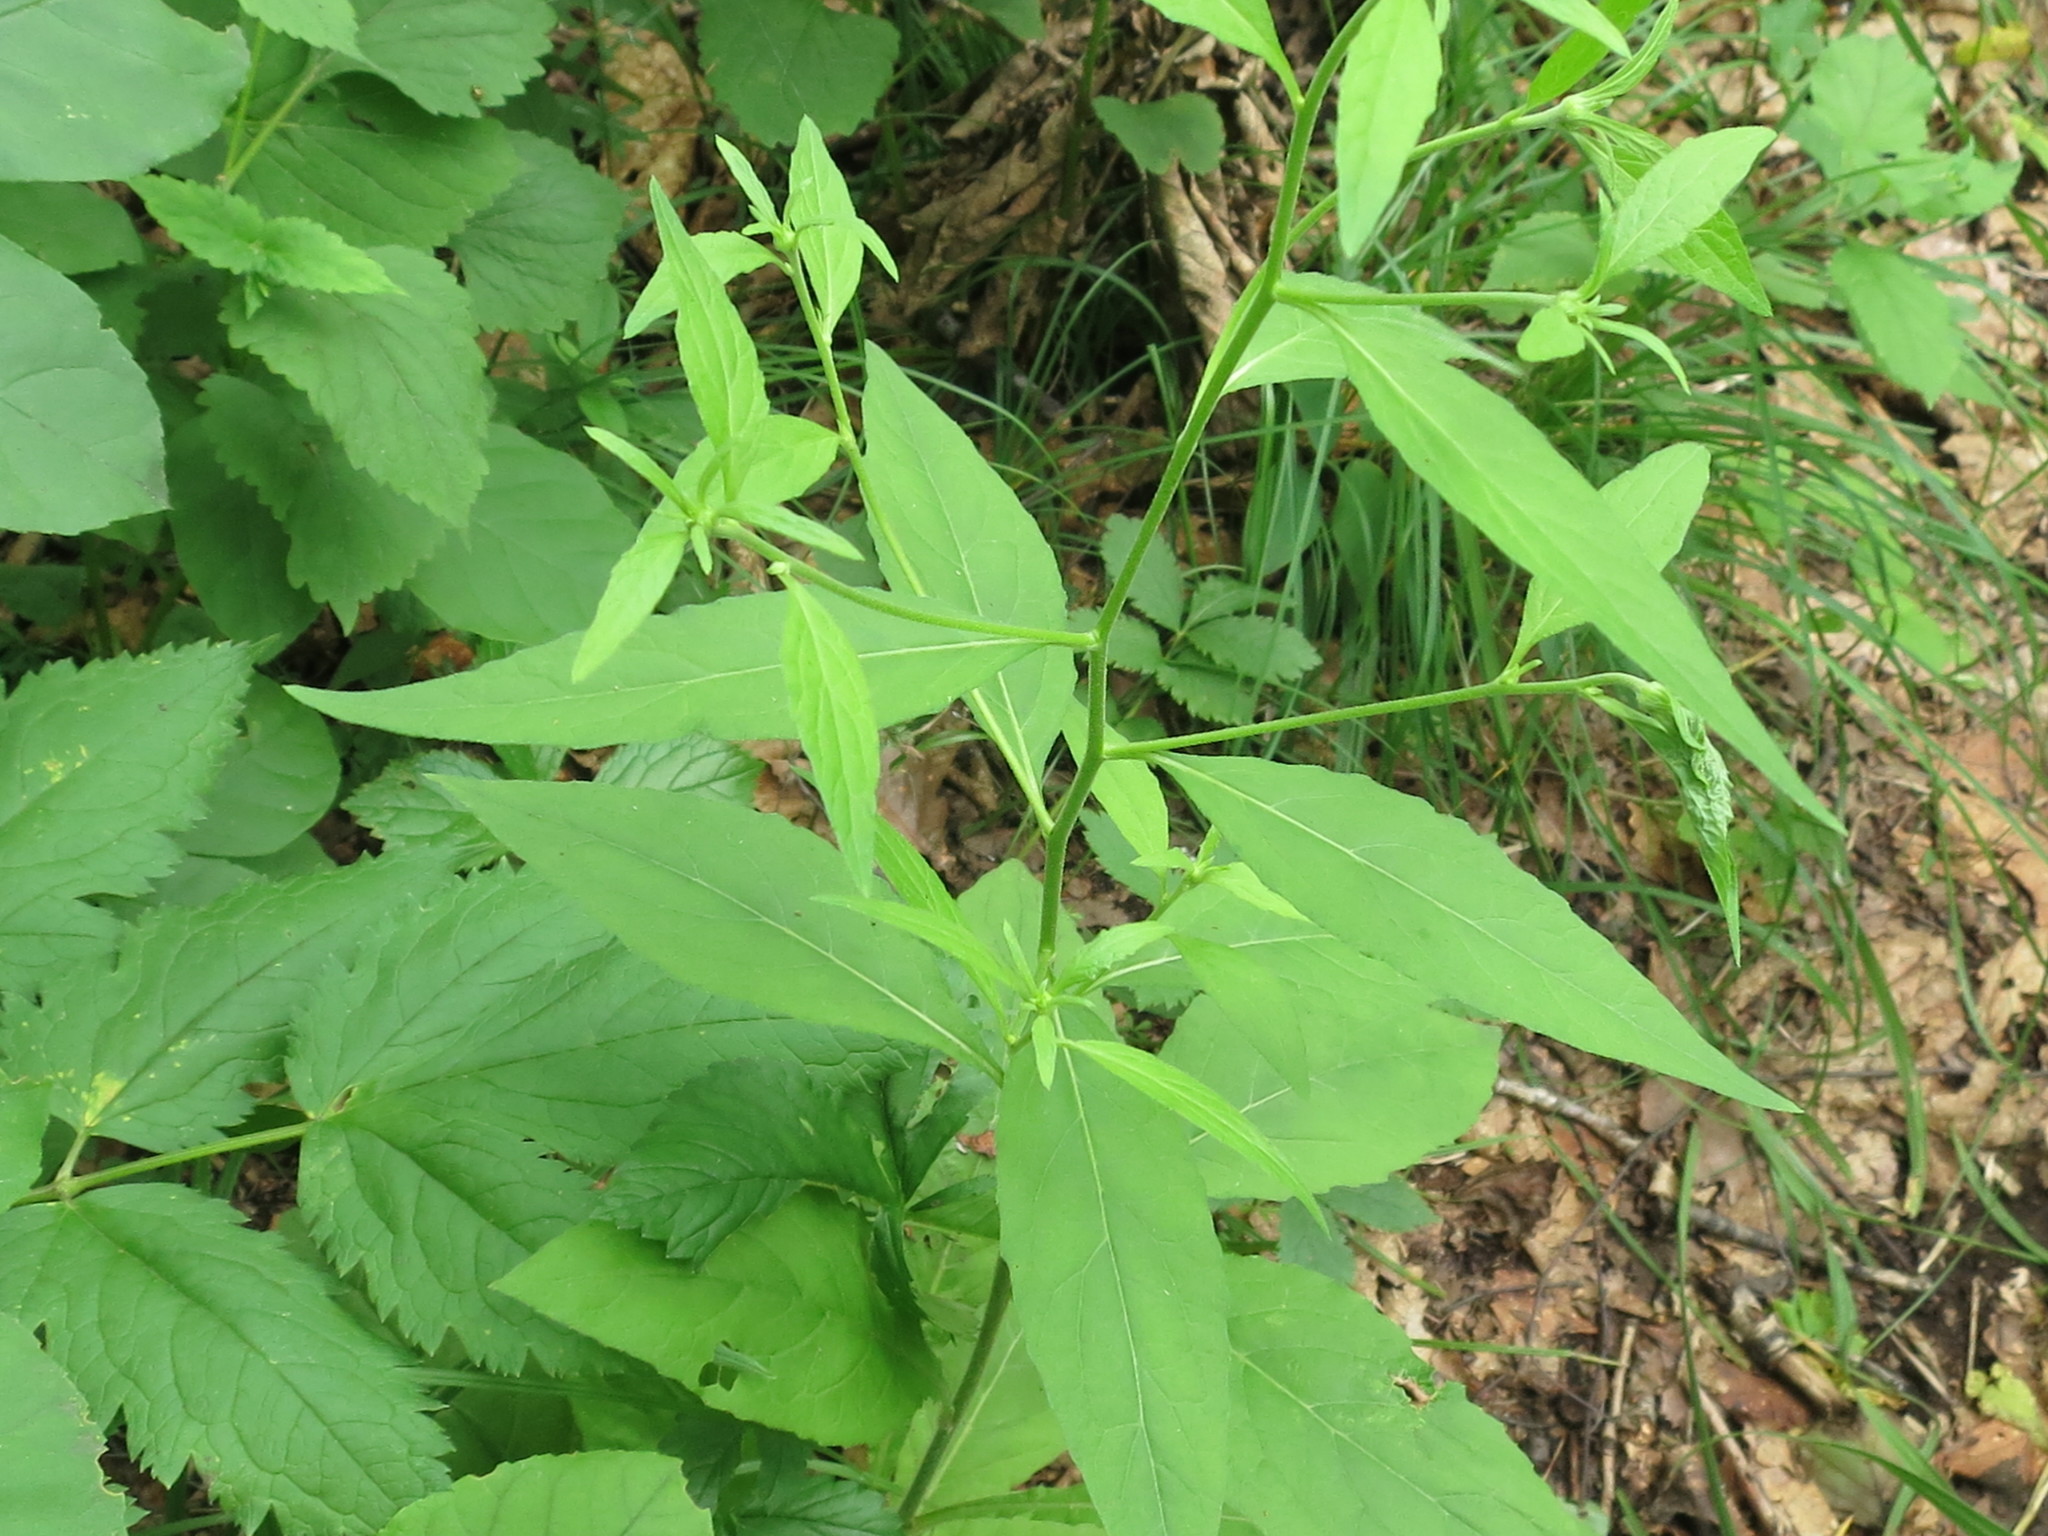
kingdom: Plantae
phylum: Tracheophyta
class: Magnoliopsida
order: Asterales
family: Asteraceae
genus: Carpesium
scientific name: Carpesium cernuum
